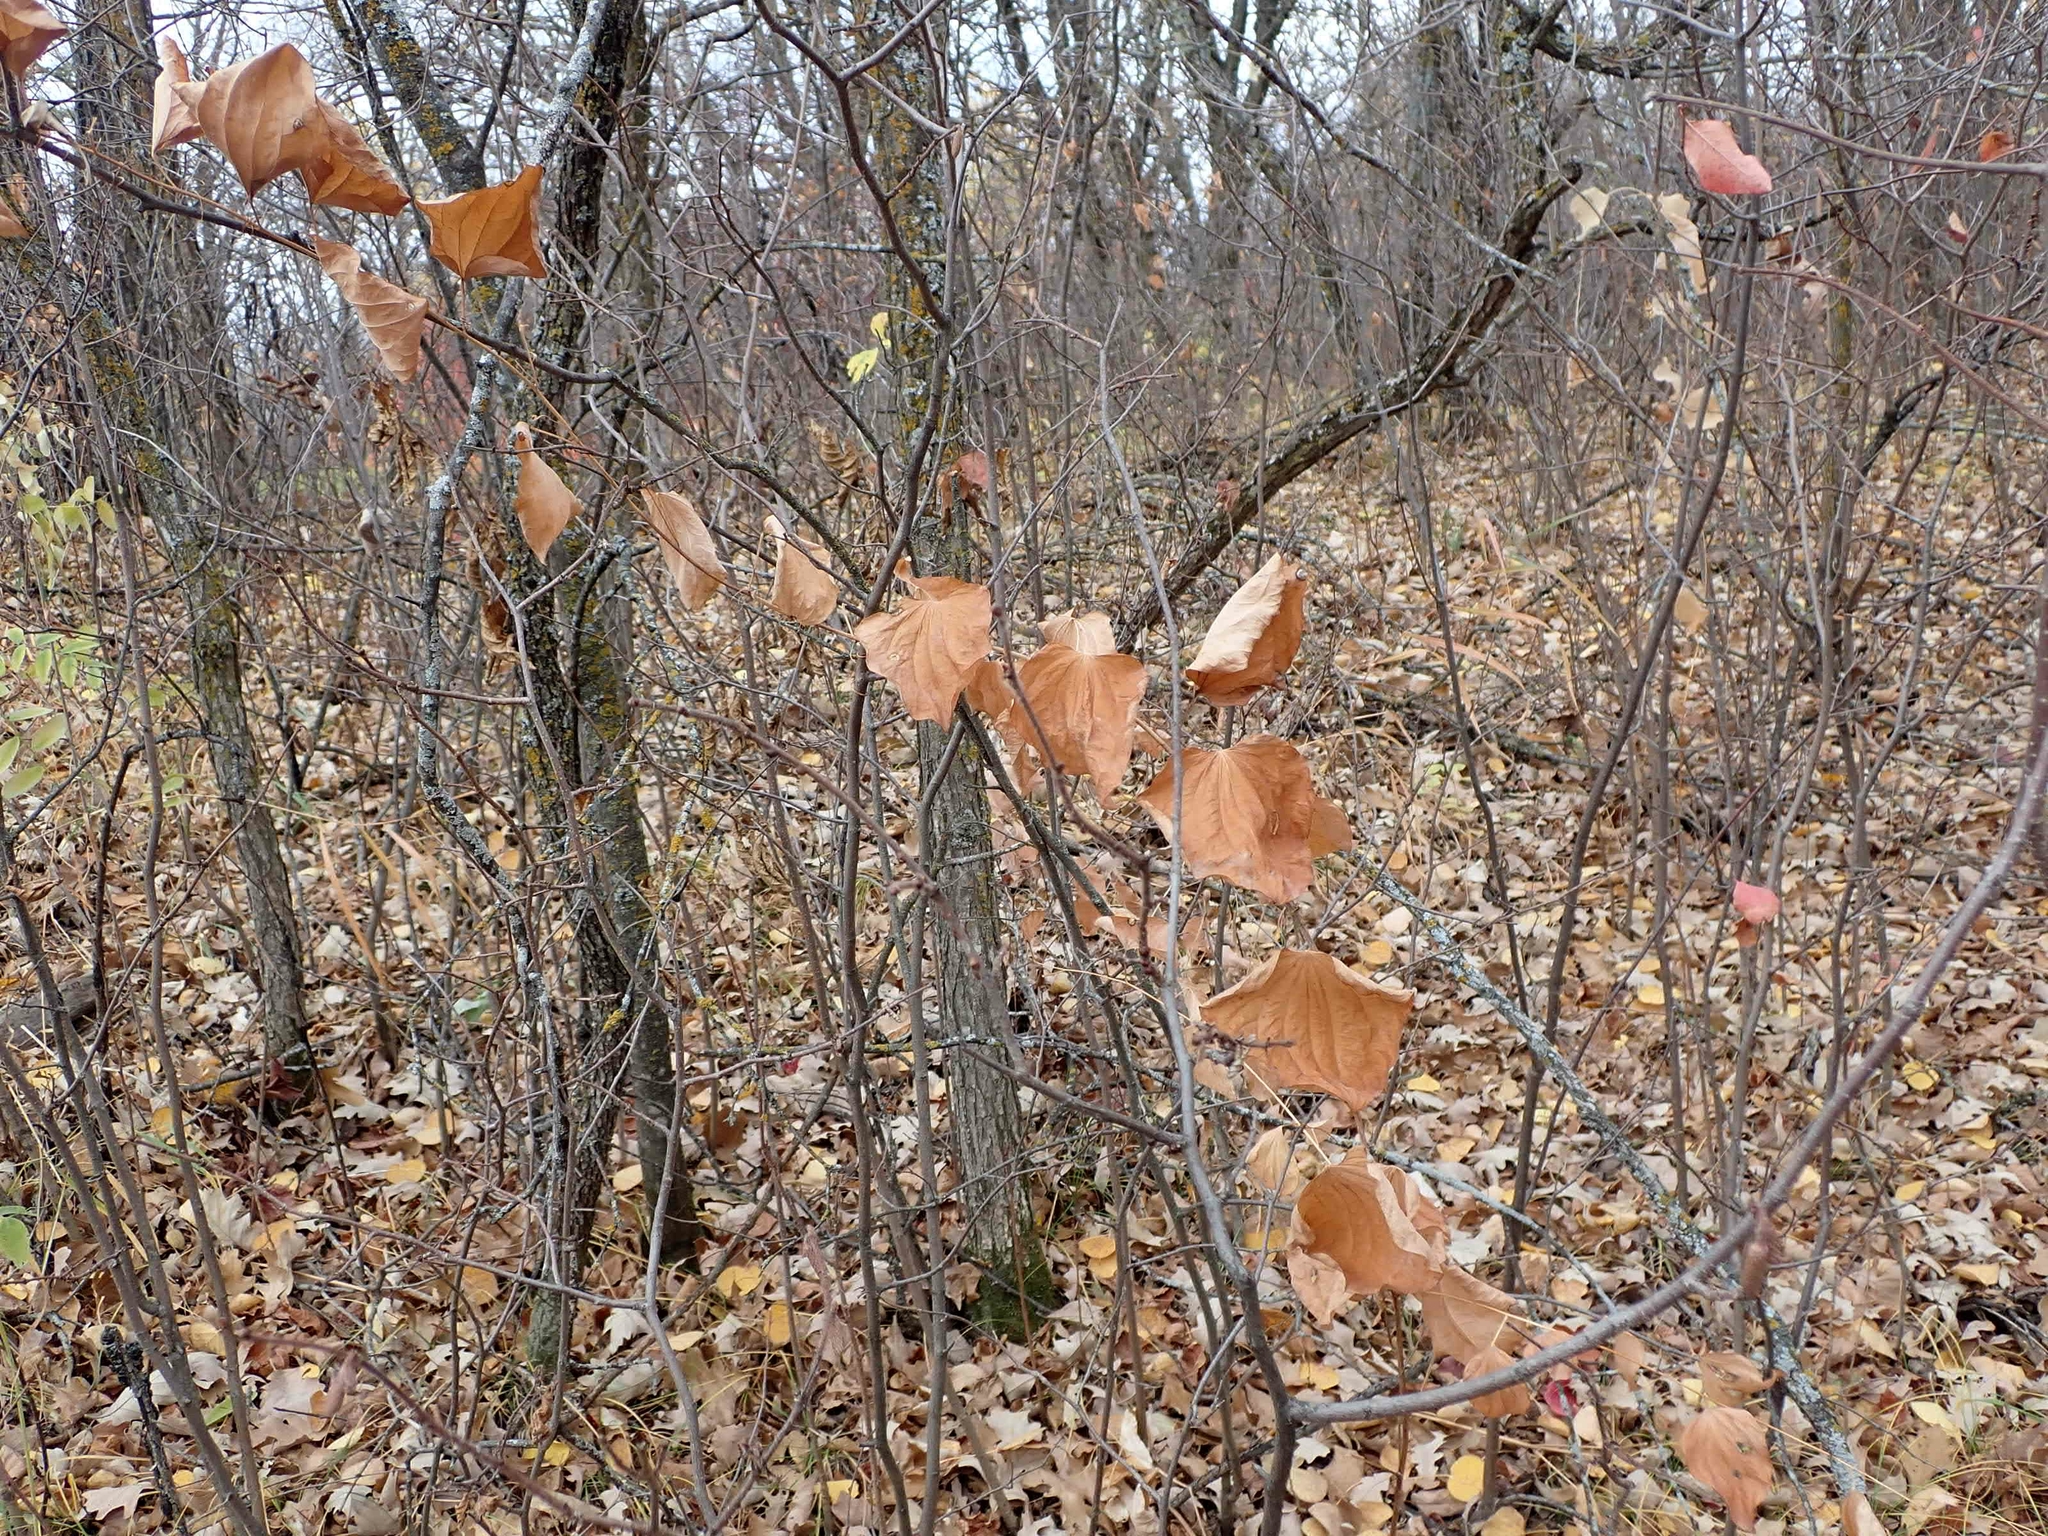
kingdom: Plantae
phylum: Tracheophyta
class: Liliopsida
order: Liliales
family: Smilacaceae
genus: Smilax
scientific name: Smilax lasioneura
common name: Blue ridge carrionflower
